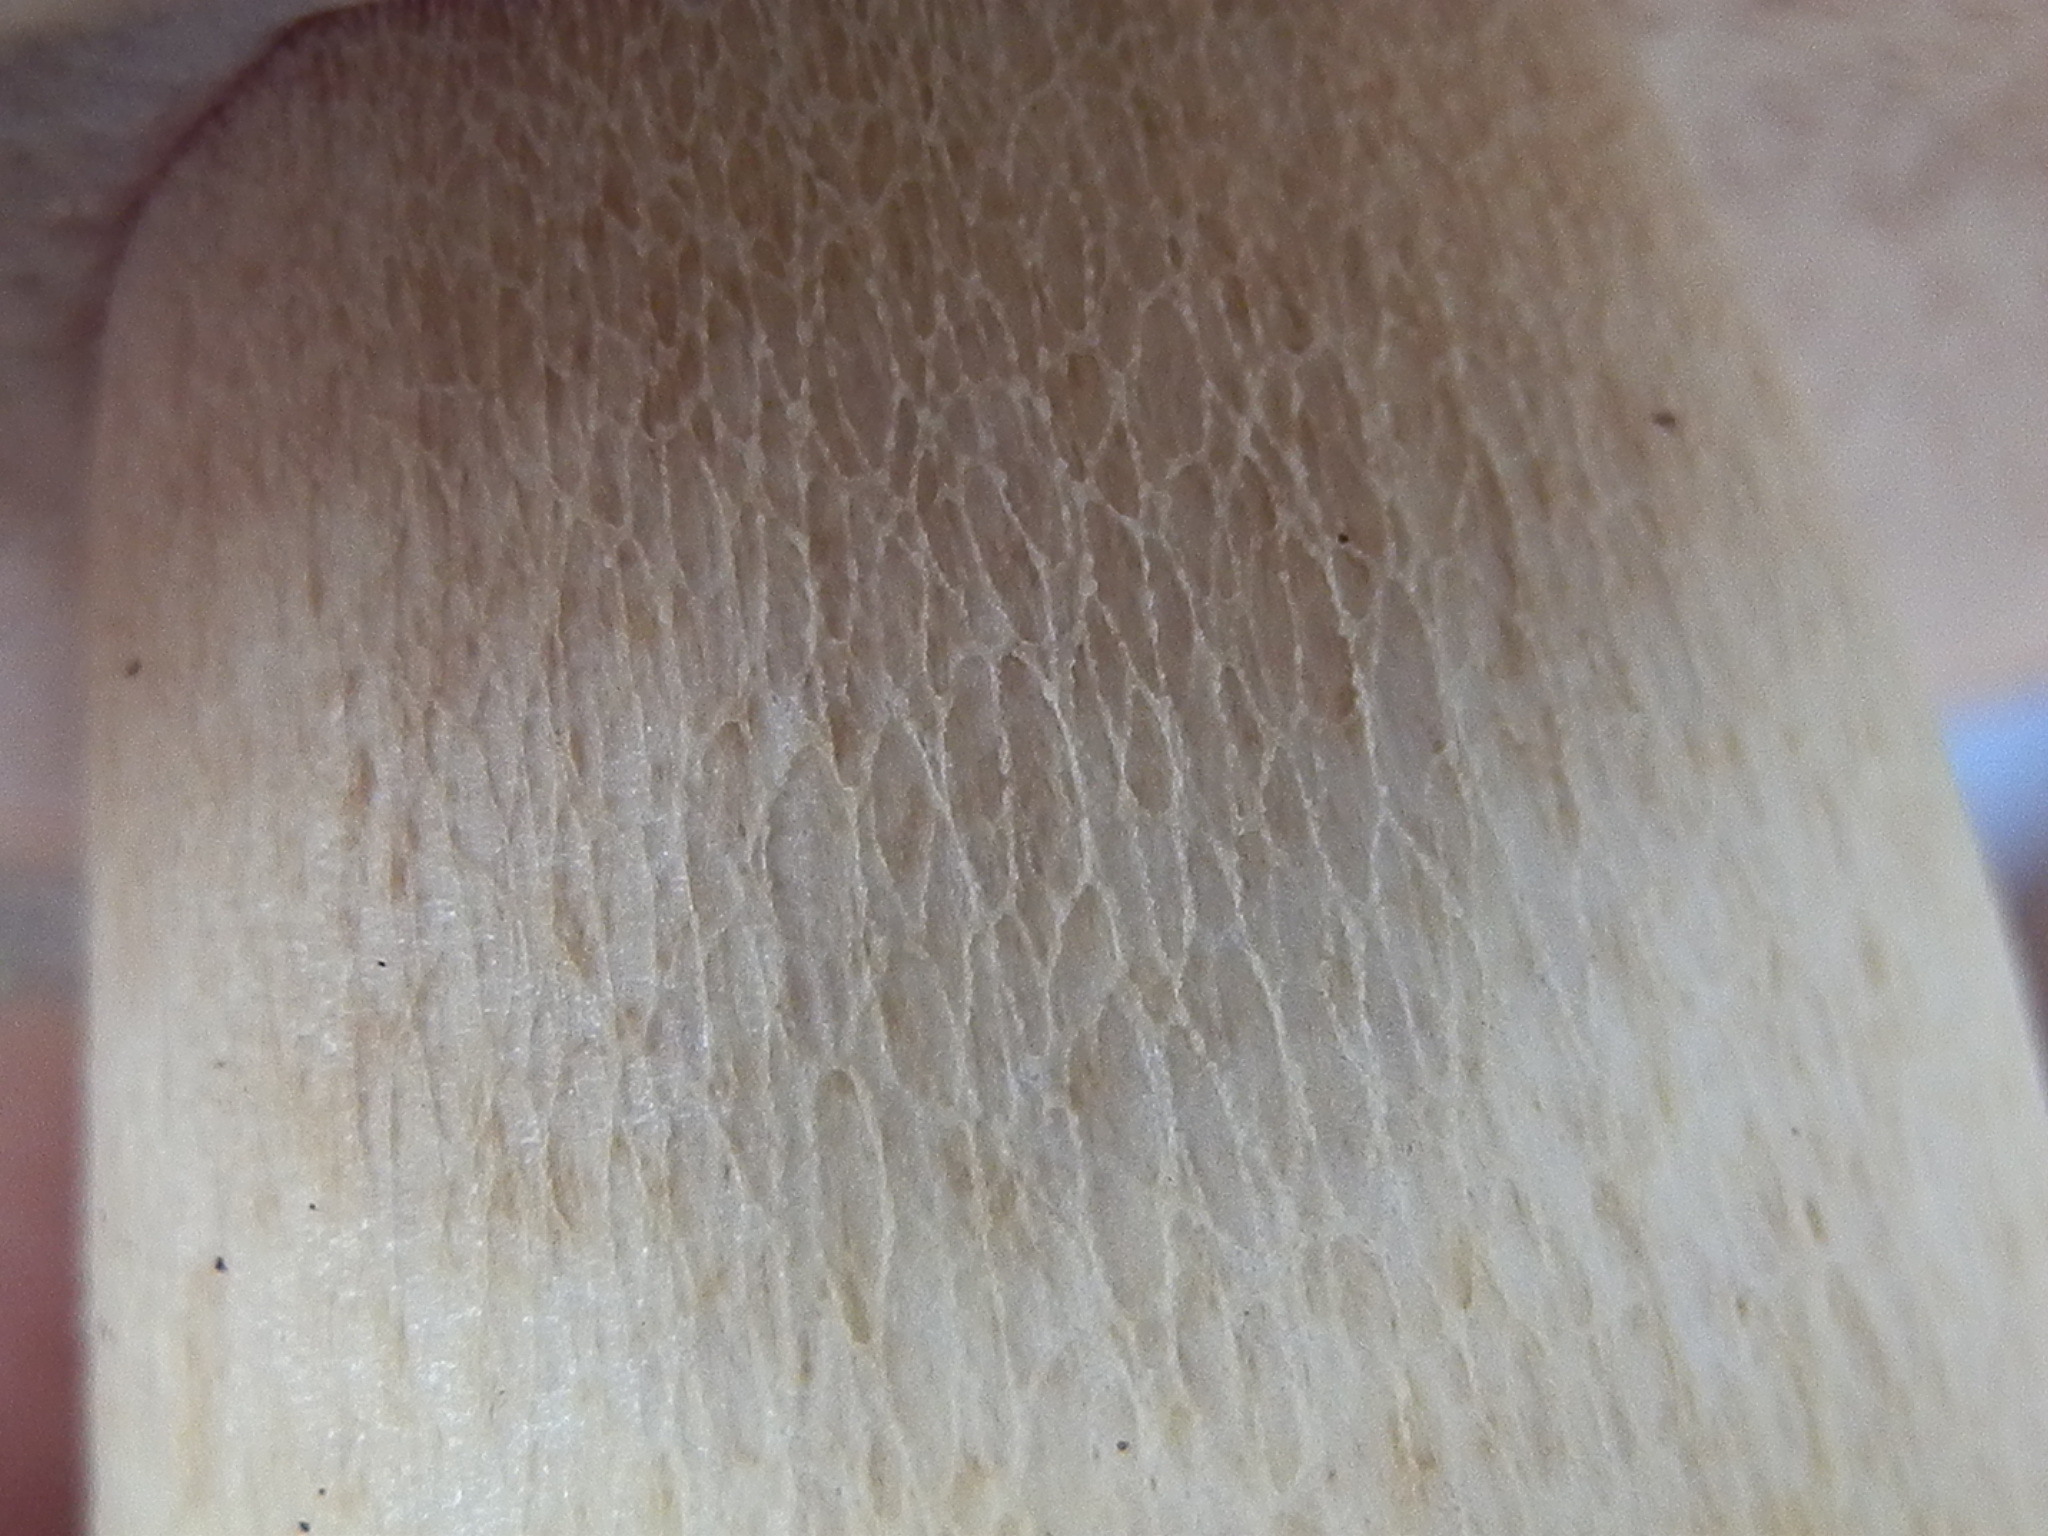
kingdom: Fungi
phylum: Basidiomycota
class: Agaricomycetes
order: Boletales
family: Boletaceae
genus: Boletus
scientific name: Boletus rubriceps
